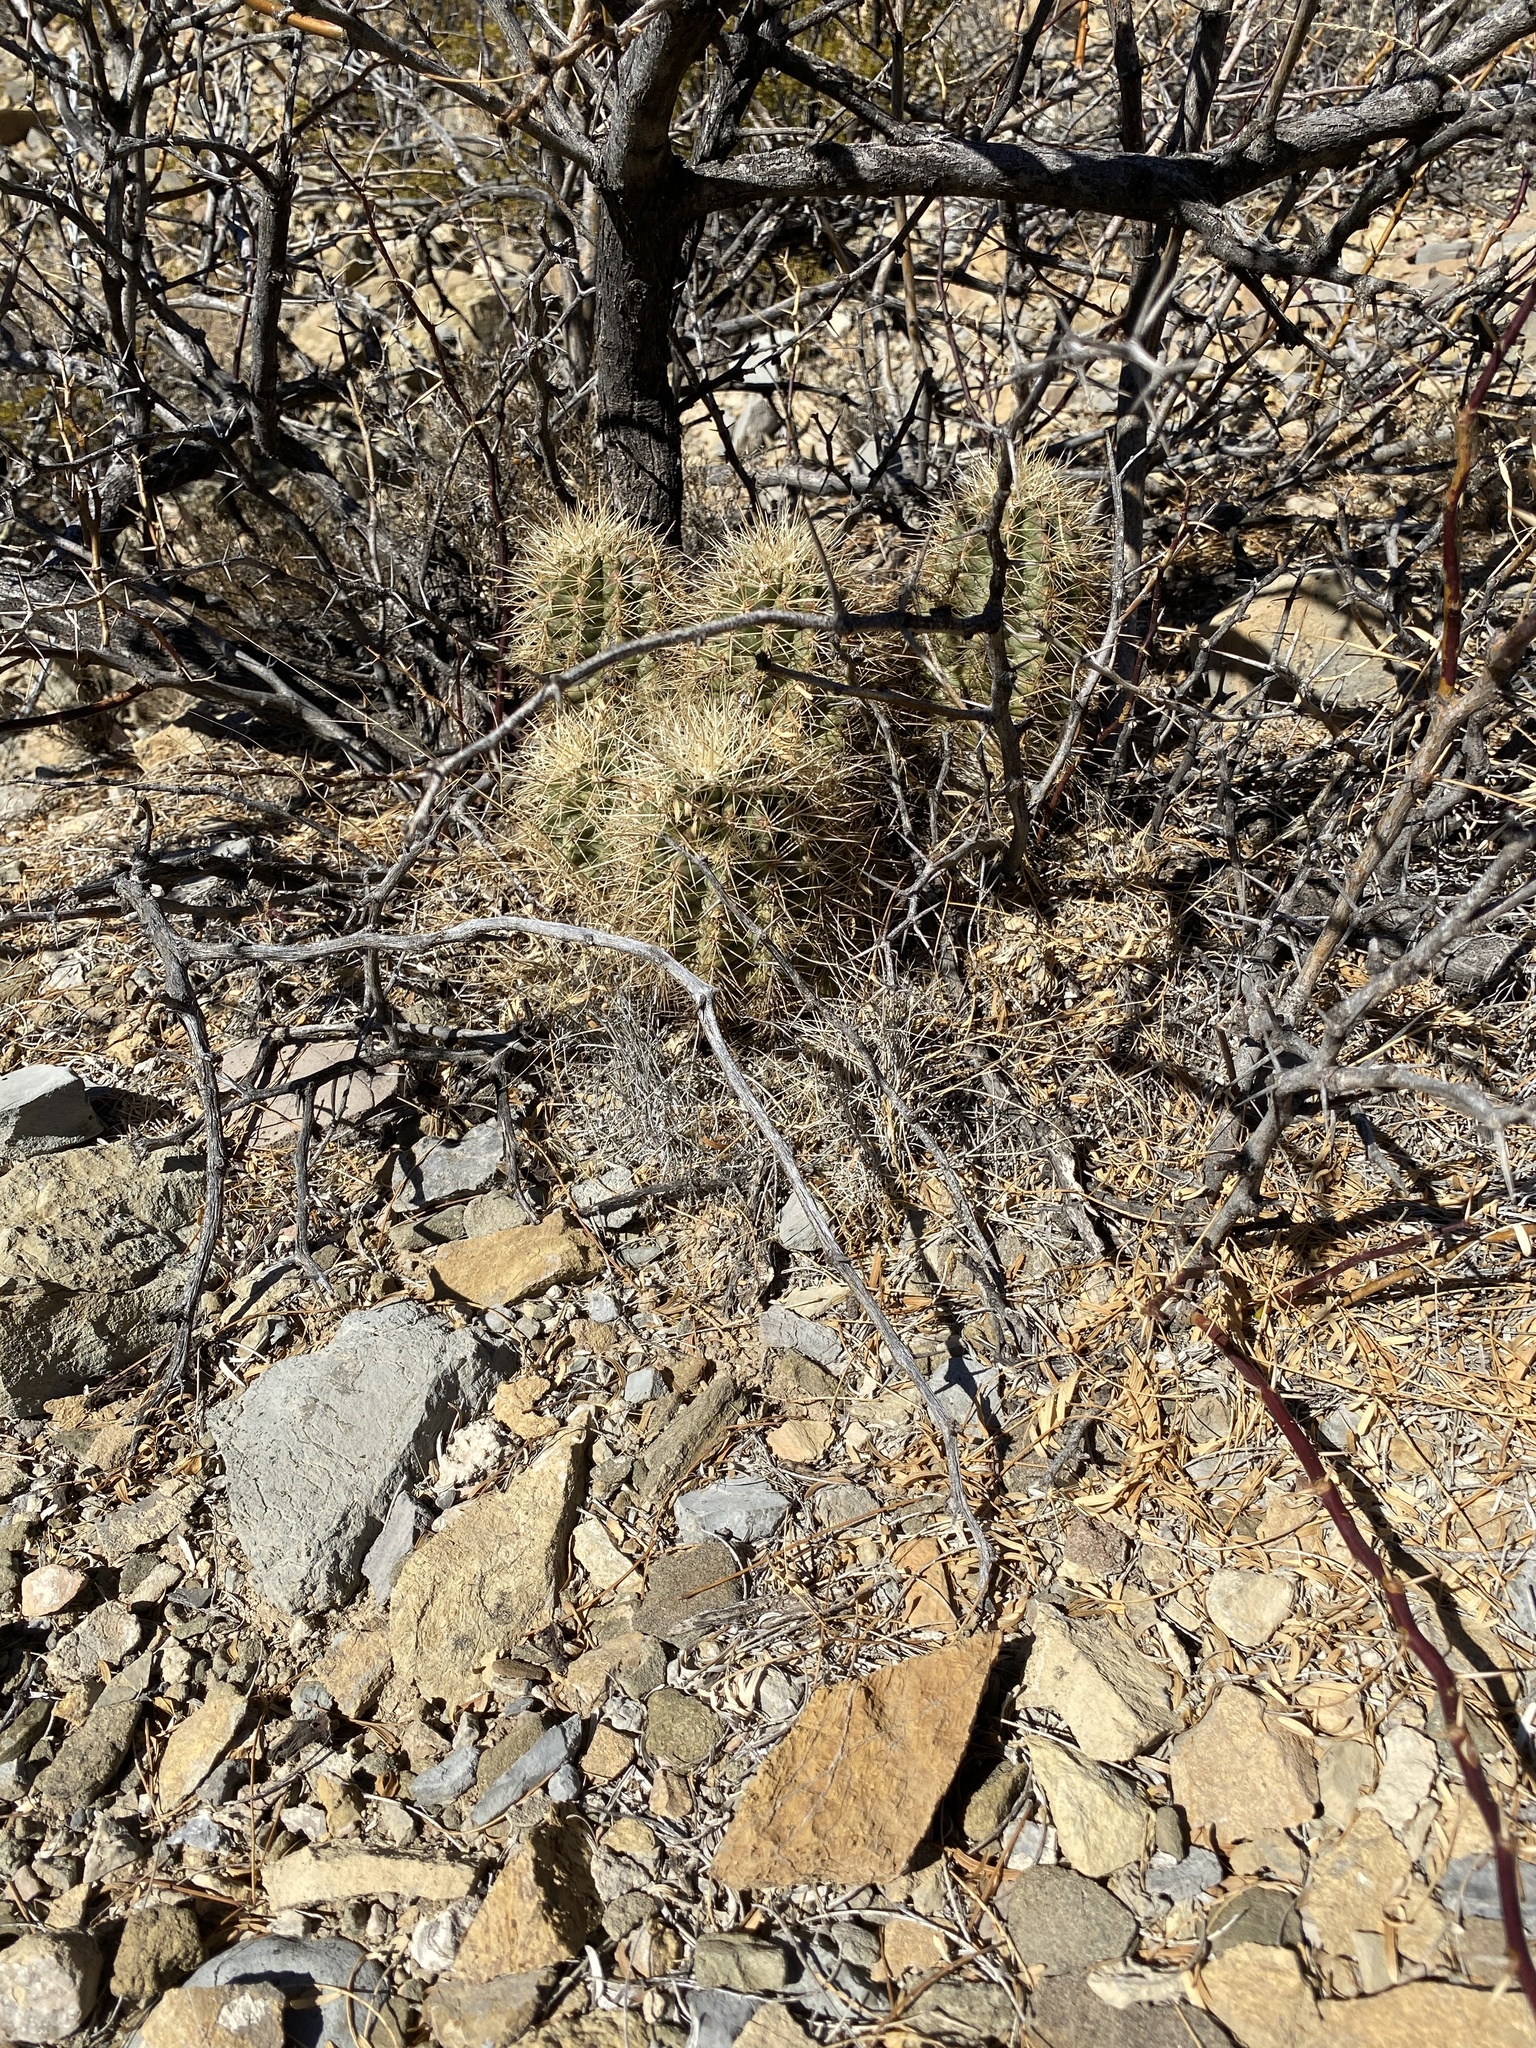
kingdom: Plantae
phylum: Tracheophyta
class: Magnoliopsida
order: Caryophyllales
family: Cactaceae
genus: Echinocereus
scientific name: Echinocereus coccineus
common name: Scarlet hedgehog cactus
